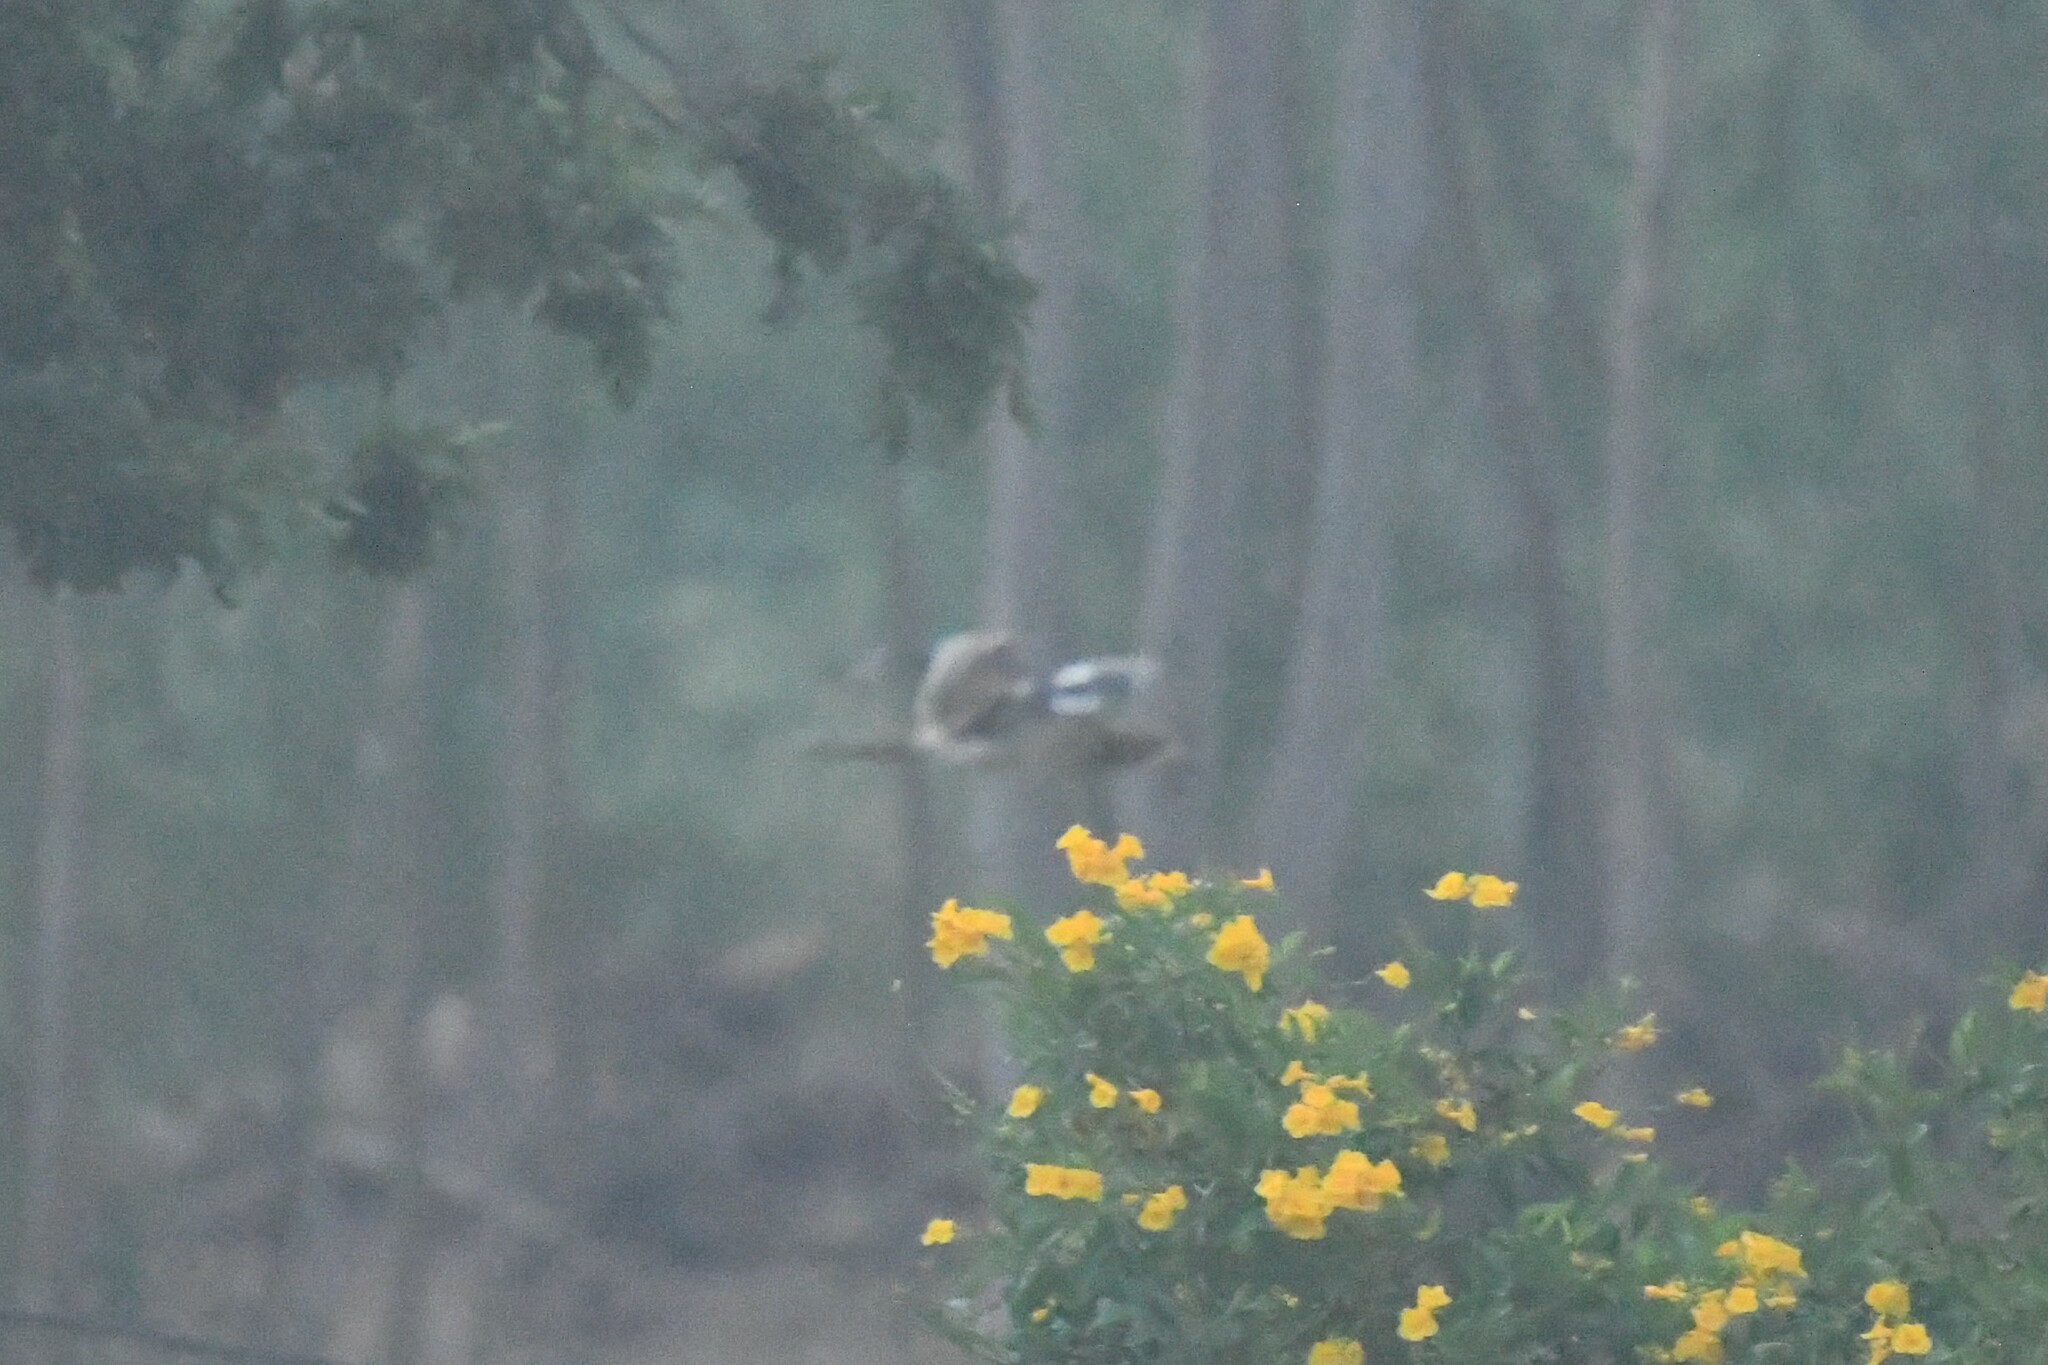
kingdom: Animalia
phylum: Chordata
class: Aves
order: Charadriiformes
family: Burhinidae
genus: Burhinus
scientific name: Burhinus indicus
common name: Indian thick-knee
